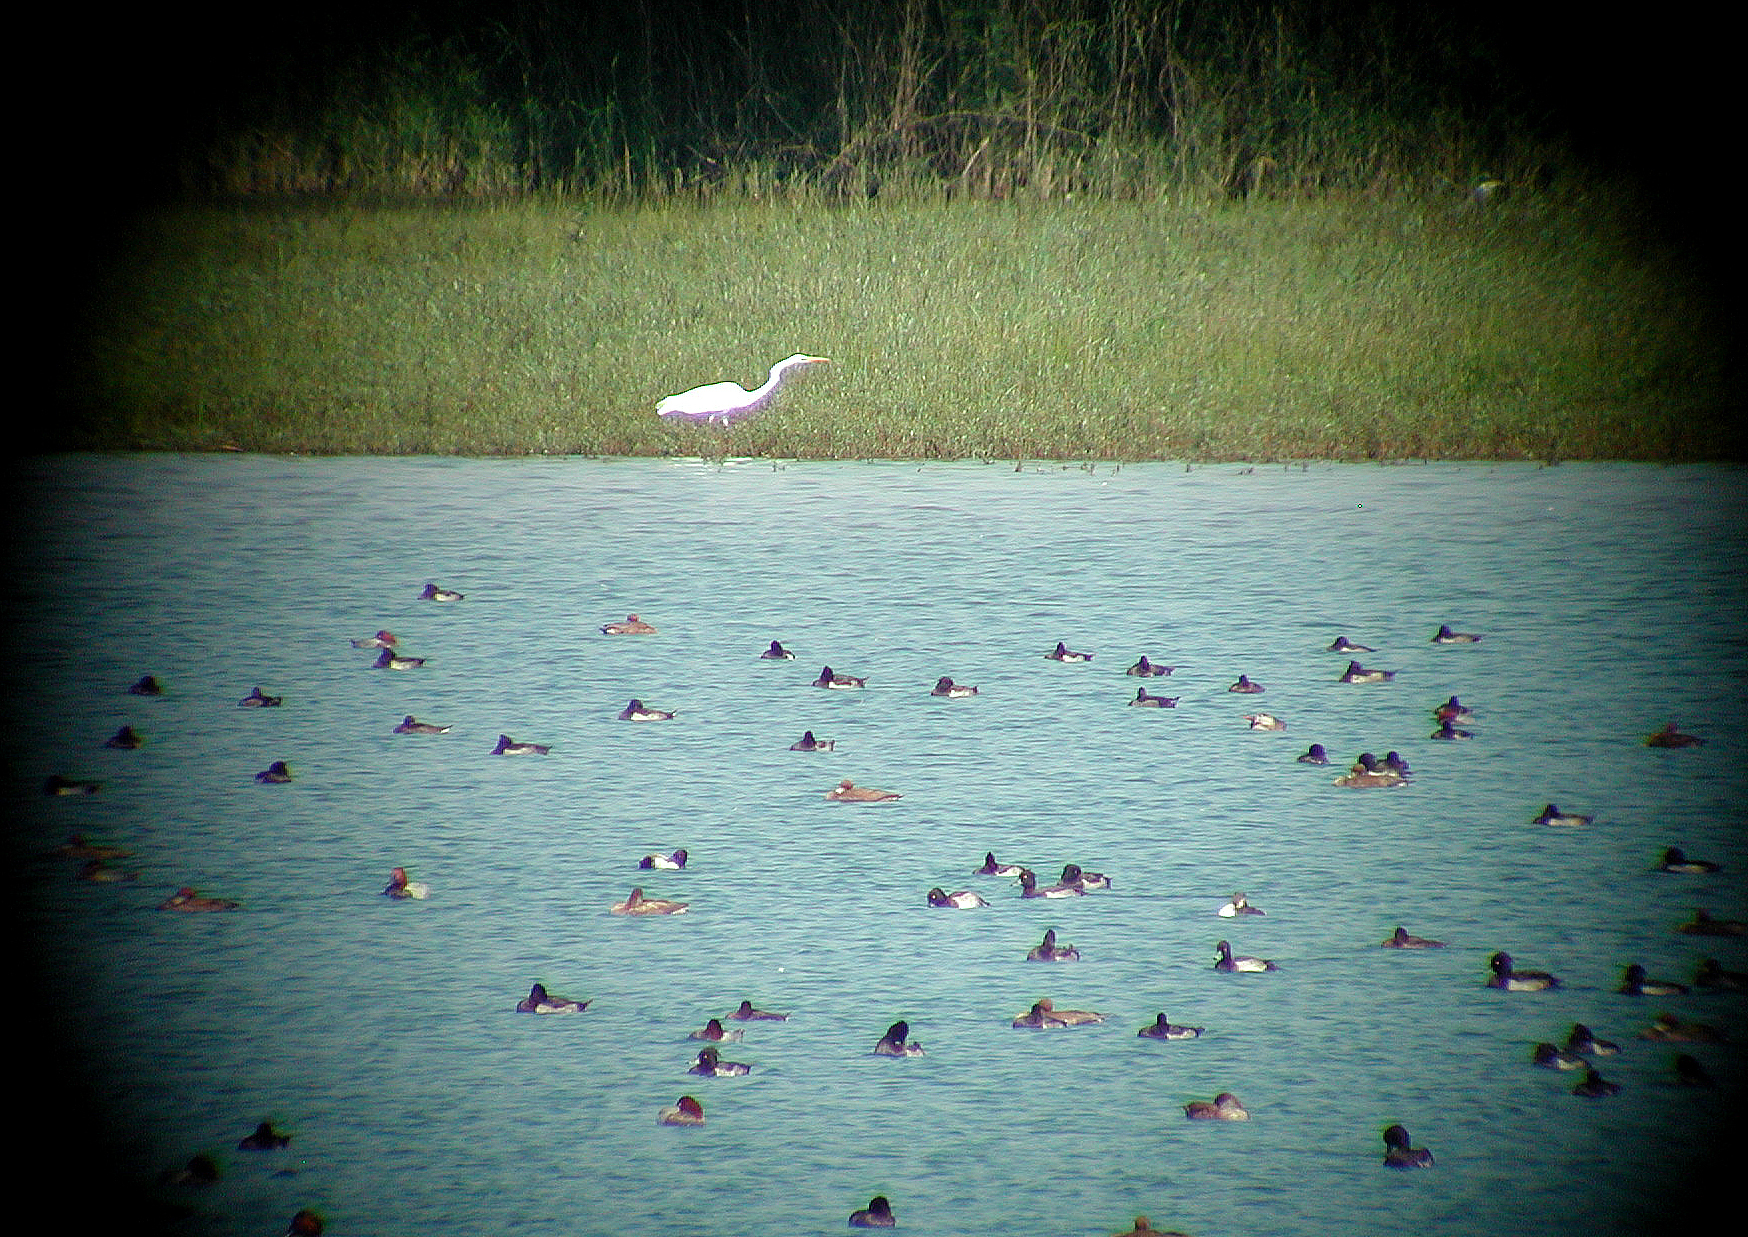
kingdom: Animalia
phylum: Chordata
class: Aves
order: Pelecaniformes
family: Ardeidae
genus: Ardea
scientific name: Ardea alba
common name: Great egret
